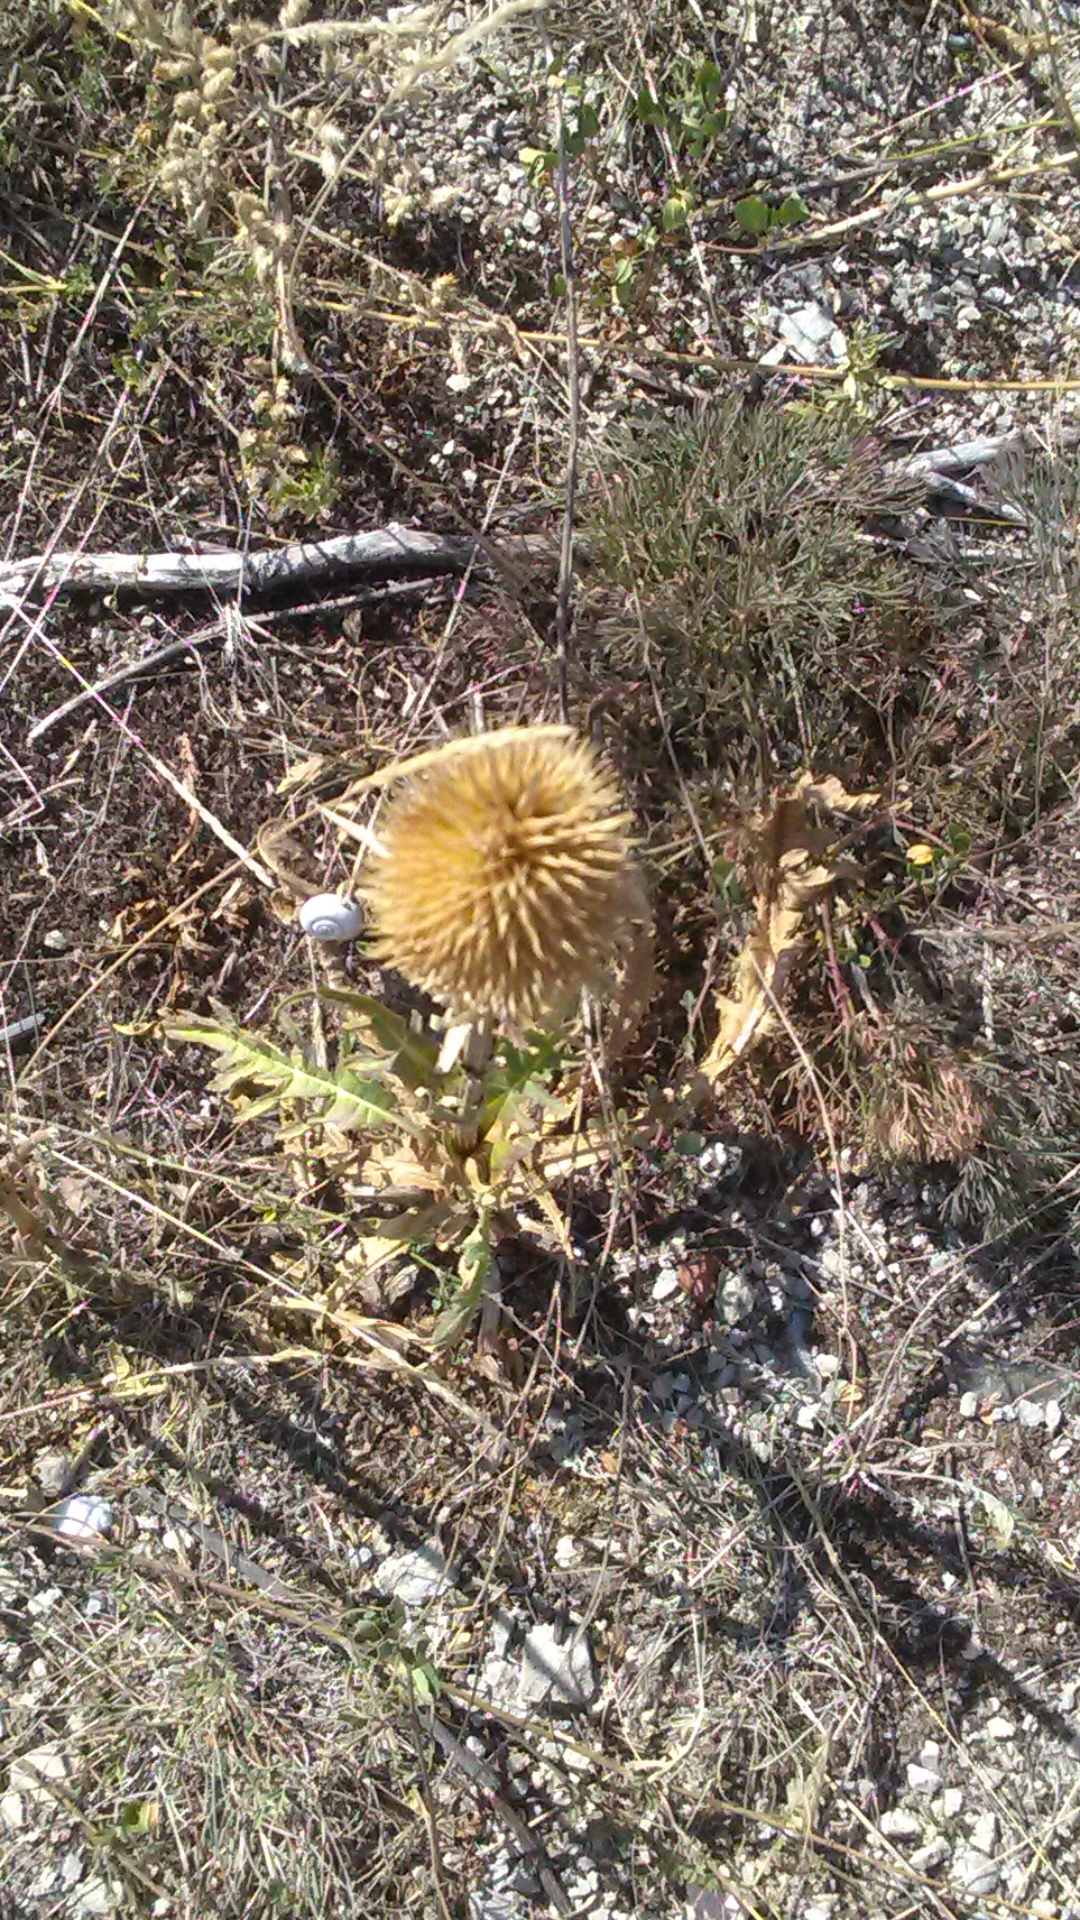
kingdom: Plantae
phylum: Tracheophyta
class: Magnoliopsida
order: Dipsacales
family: Caprifoliaceae
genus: Dipsacus
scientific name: Dipsacus laciniatus
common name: Cut-leaved teasel
